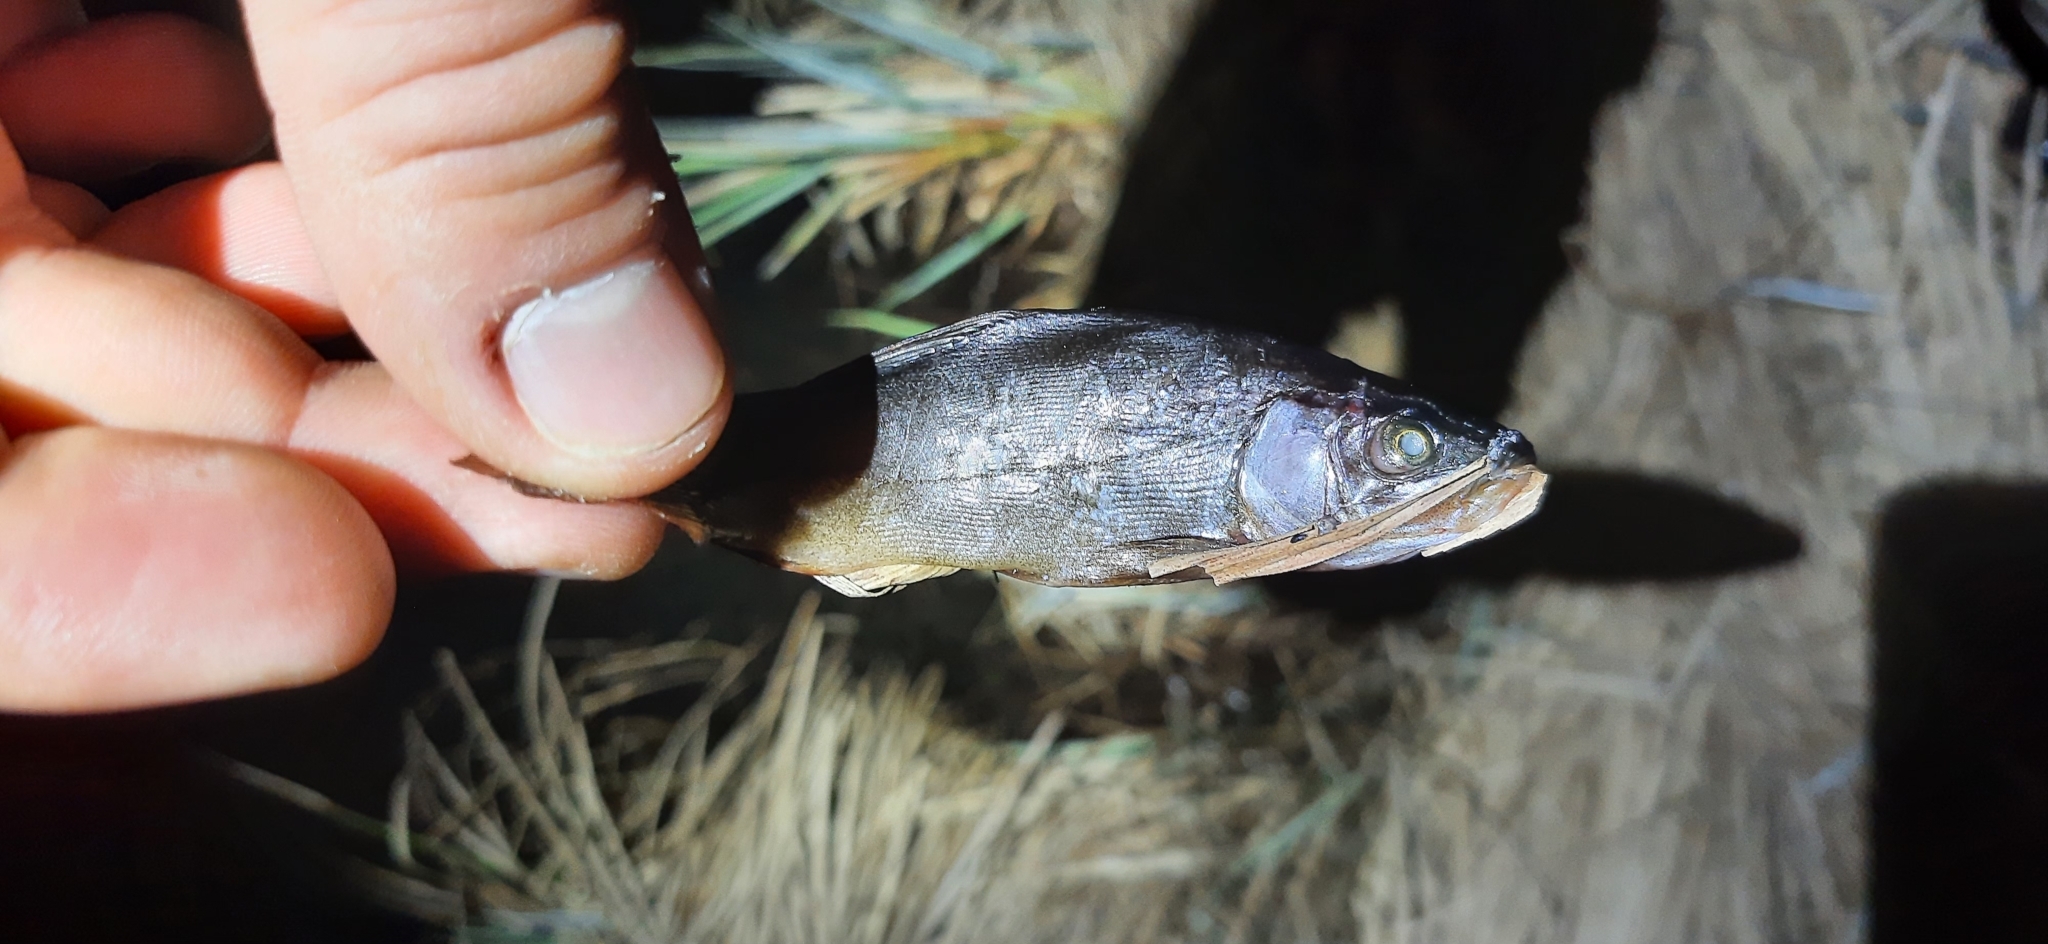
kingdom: Animalia
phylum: Chordata
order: Cypriniformes
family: Cyprinidae
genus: Tinca
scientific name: Tinca tinca
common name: Tench
